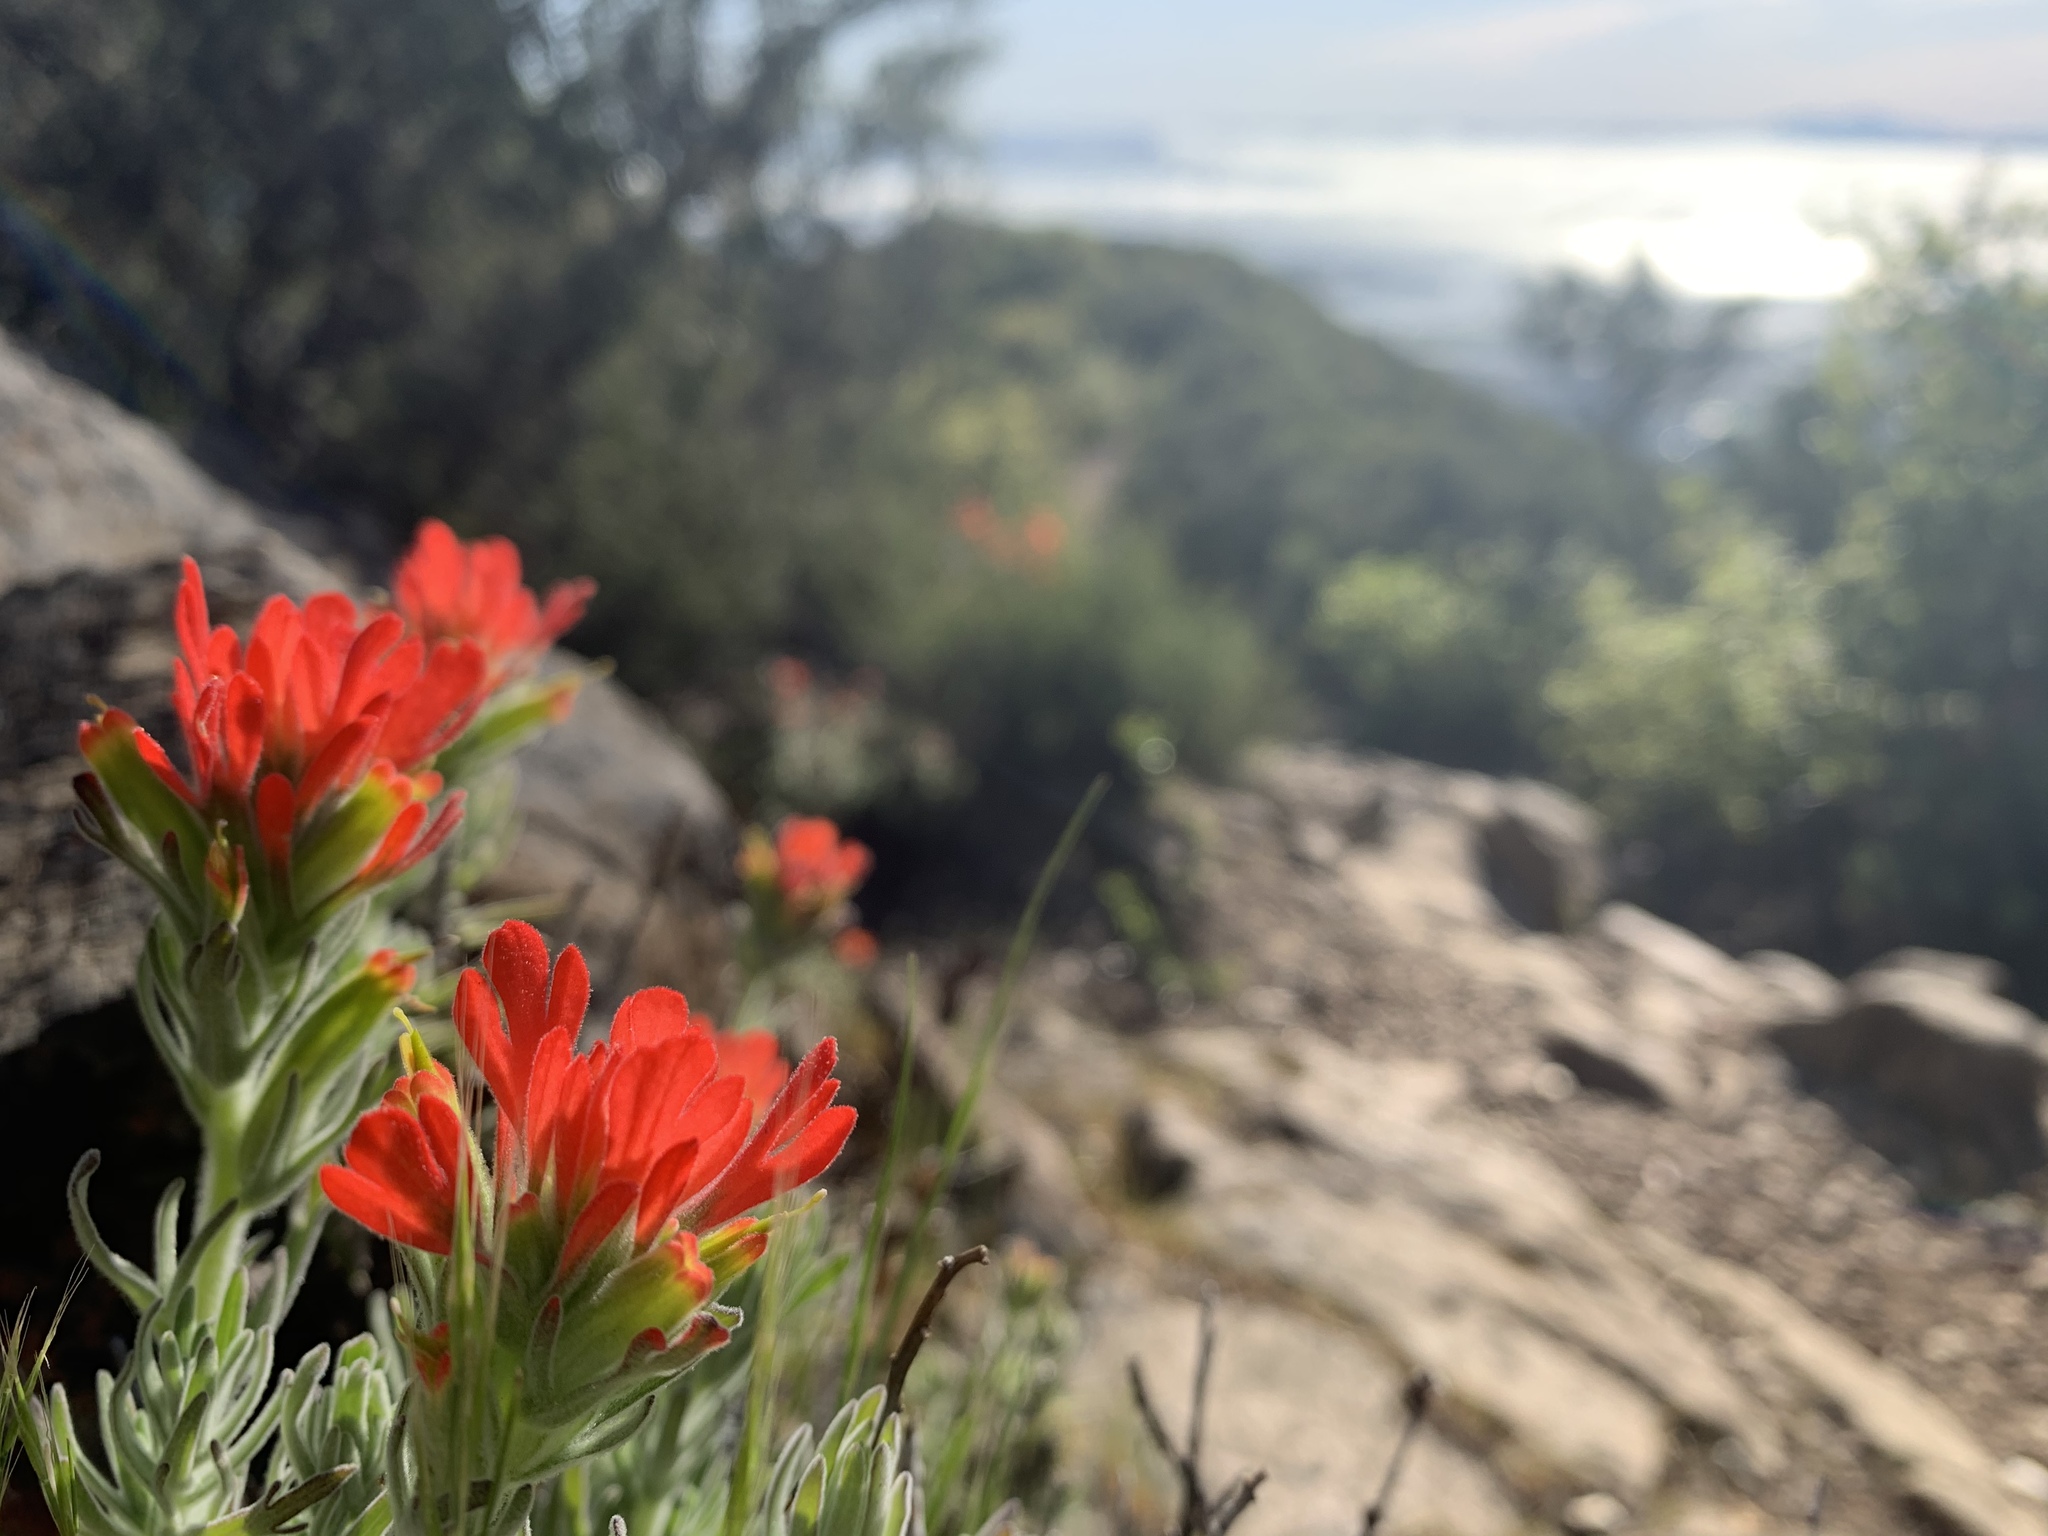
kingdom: Plantae
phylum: Tracheophyta
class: Magnoliopsida
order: Lamiales
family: Orobanchaceae
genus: Castilleja
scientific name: Castilleja foliolosa
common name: Woolly indian paintbrush
